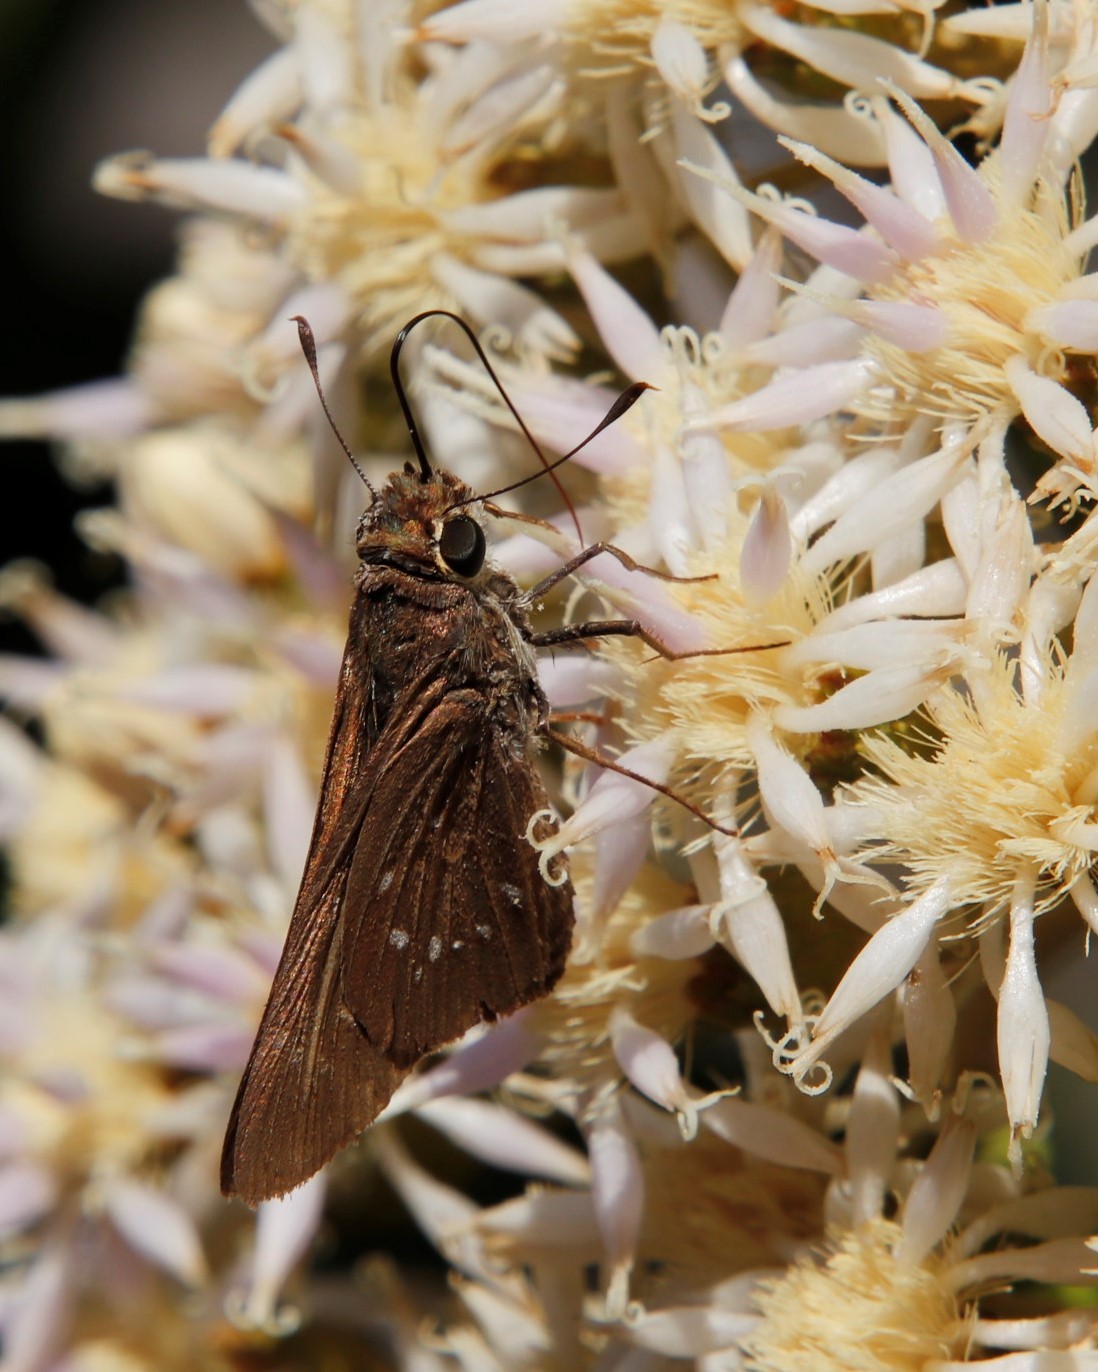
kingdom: Animalia
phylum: Arthropoda
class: Insecta
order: Lepidoptera
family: Hesperiidae
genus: Pelopidas
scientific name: Pelopidas thrax
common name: Millet skipper
